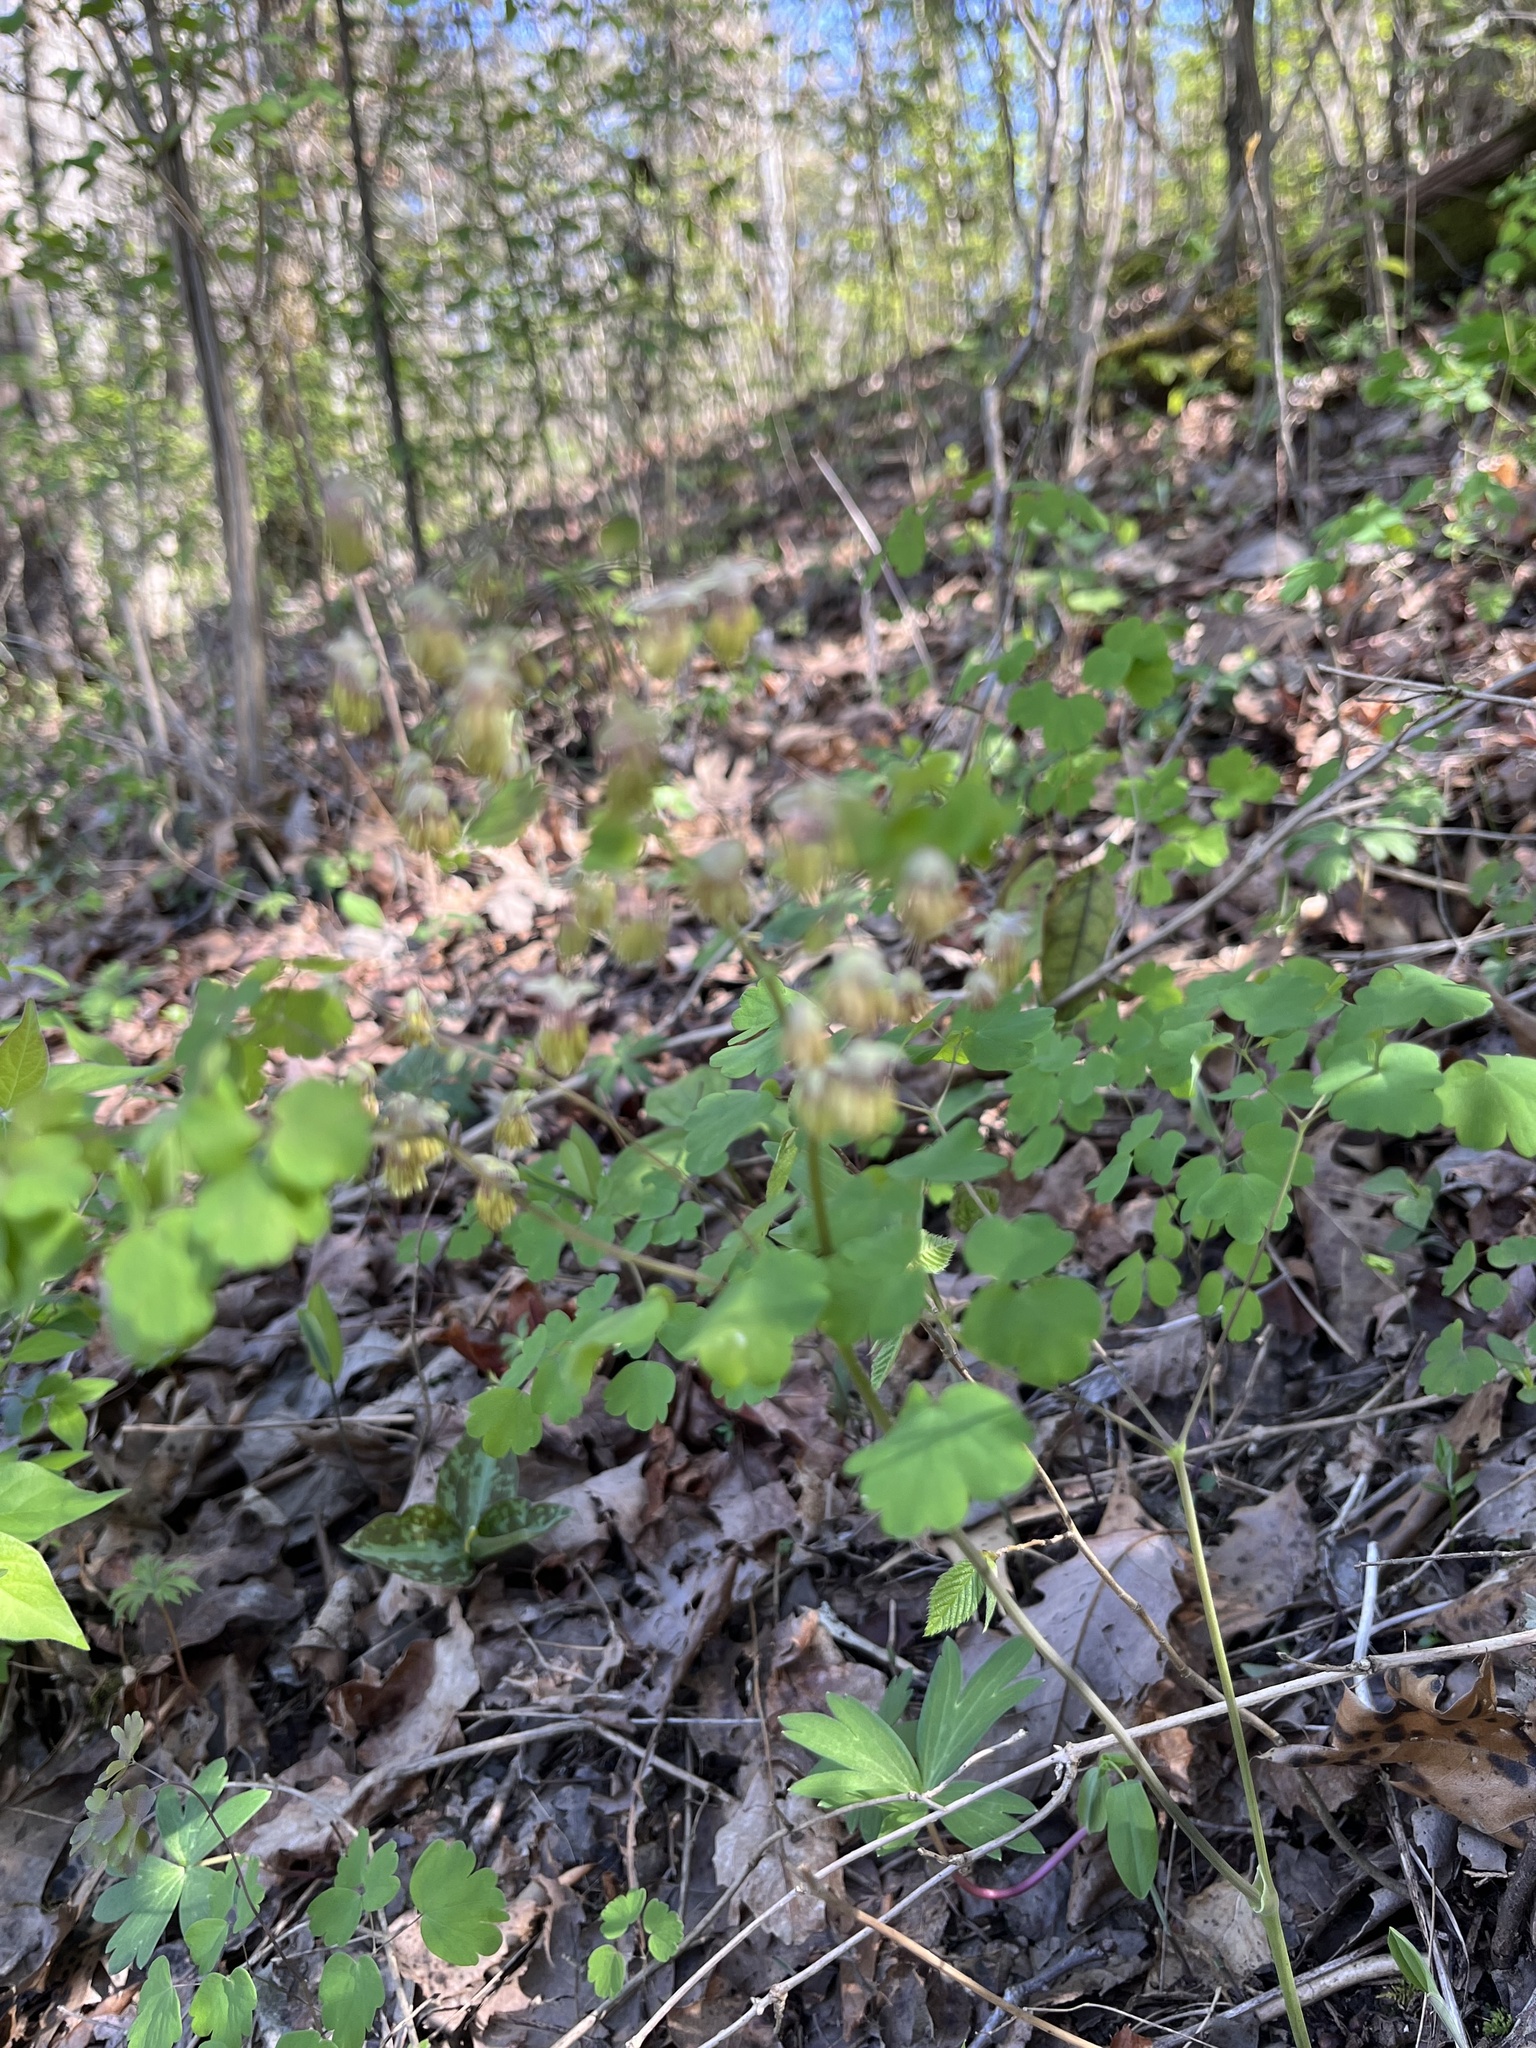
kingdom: Plantae
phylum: Tracheophyta
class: Magnoliopsida
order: Ranunculales
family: Ranunculaceae
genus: Thalictrum
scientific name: Thalictrum dioicum
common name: Early meadow-rue
